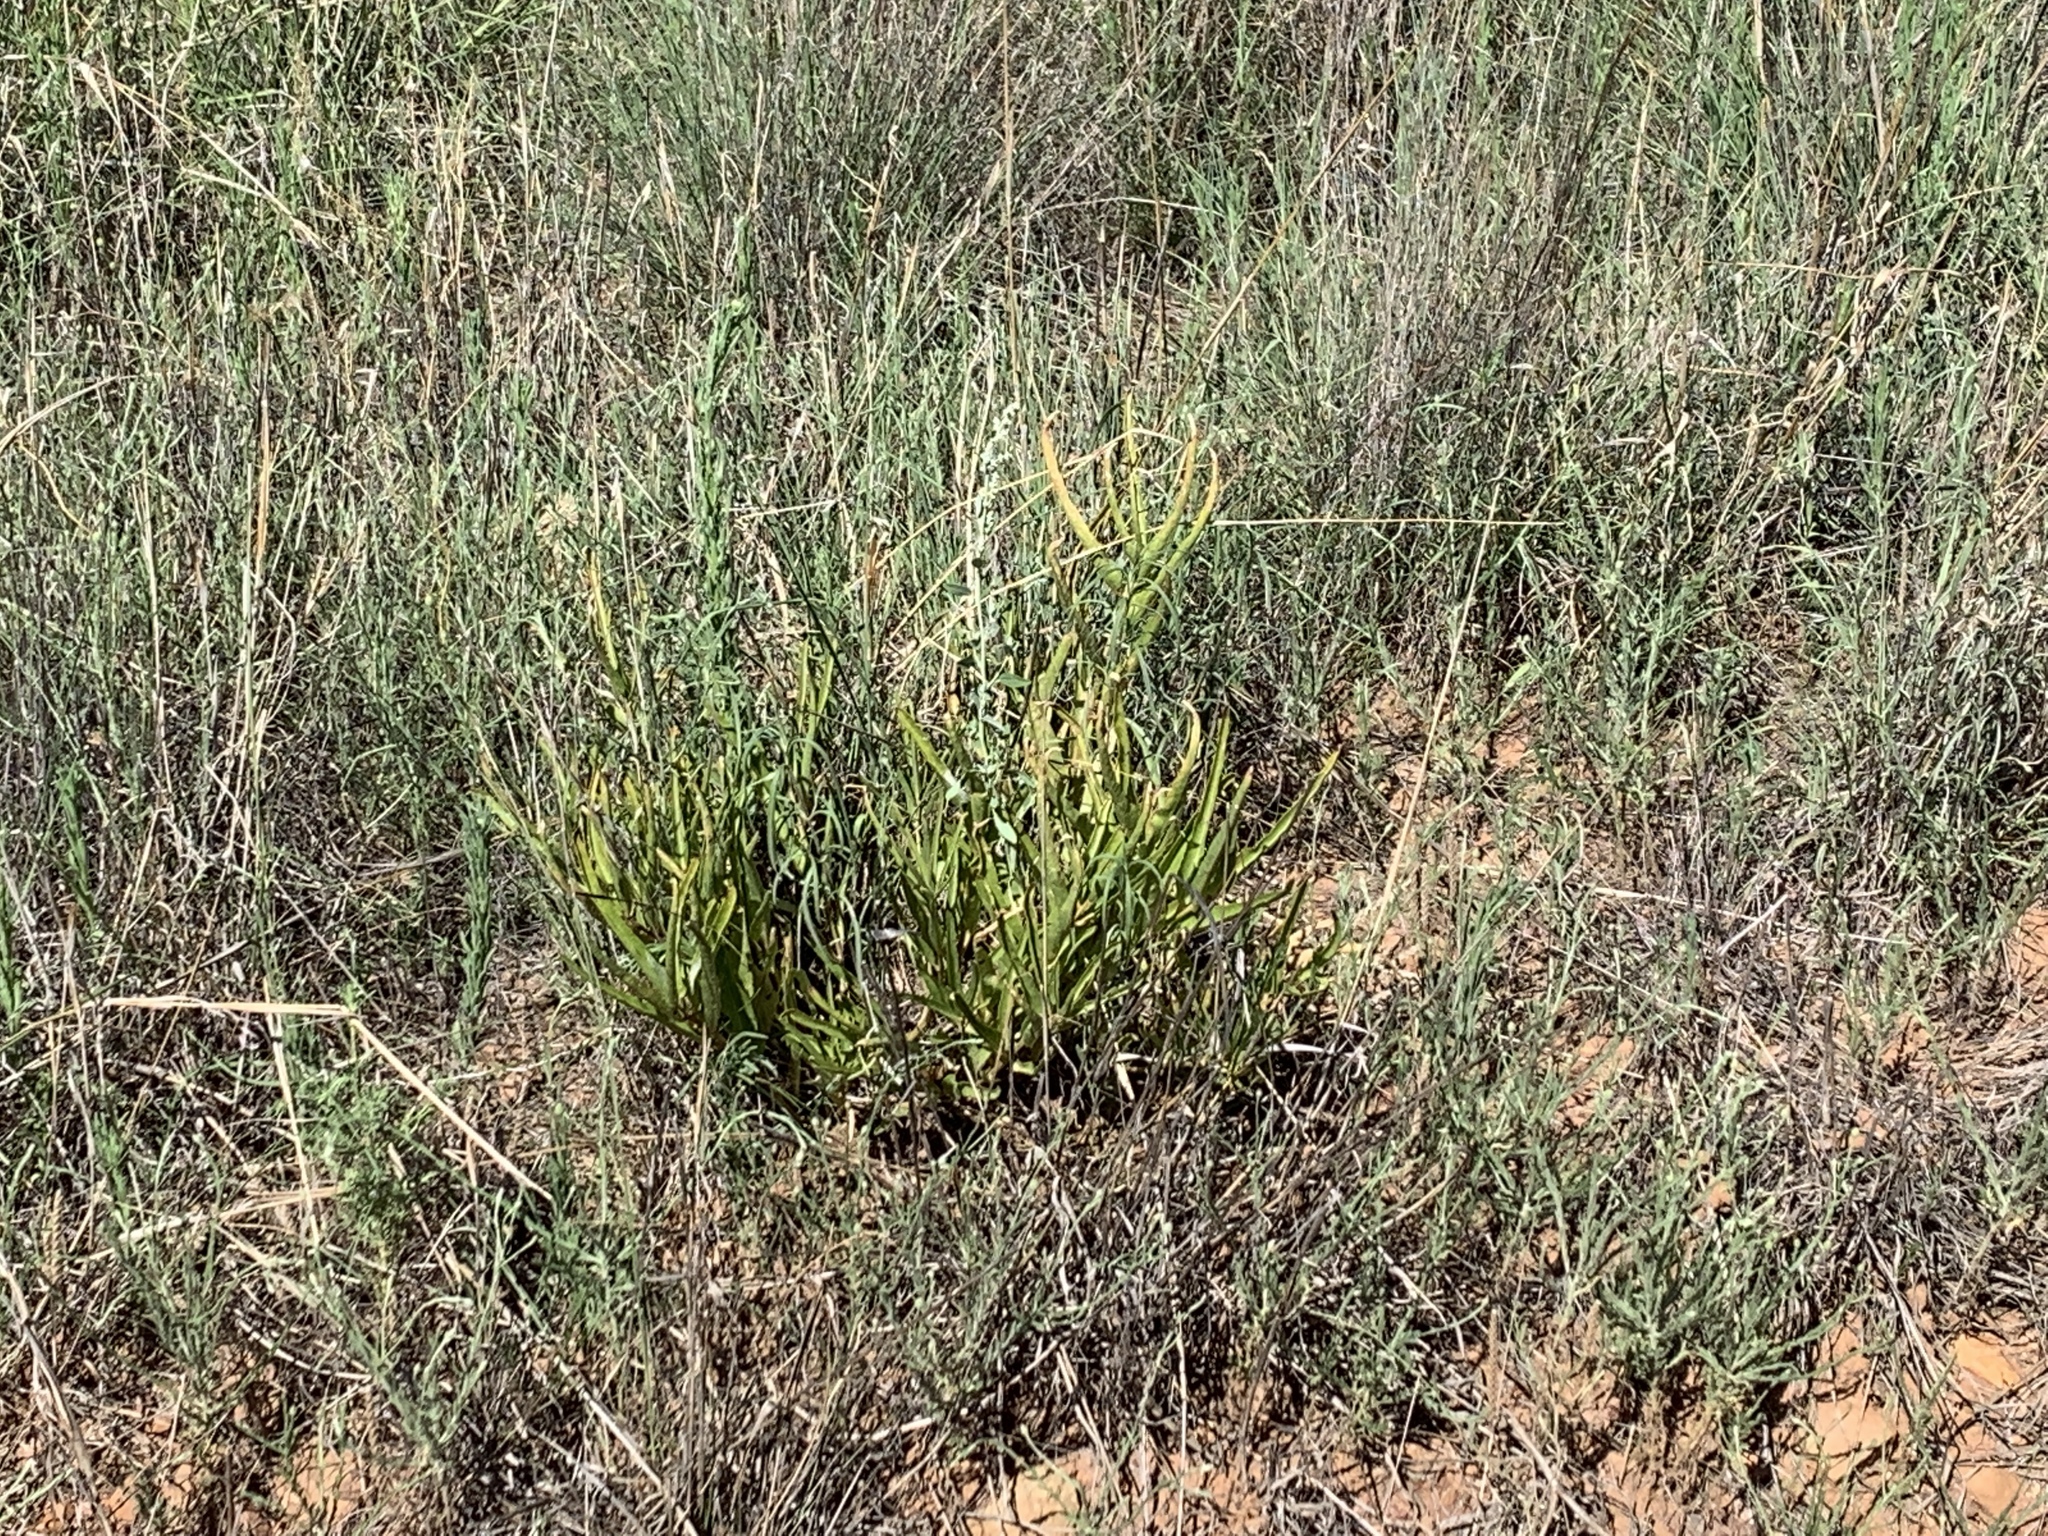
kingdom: Plantae
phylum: Tracheophyta
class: Magnoliopsida
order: Gentianales
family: Apocynaceae
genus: Asclepias
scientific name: Asclepias asperula
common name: Antelope horns
